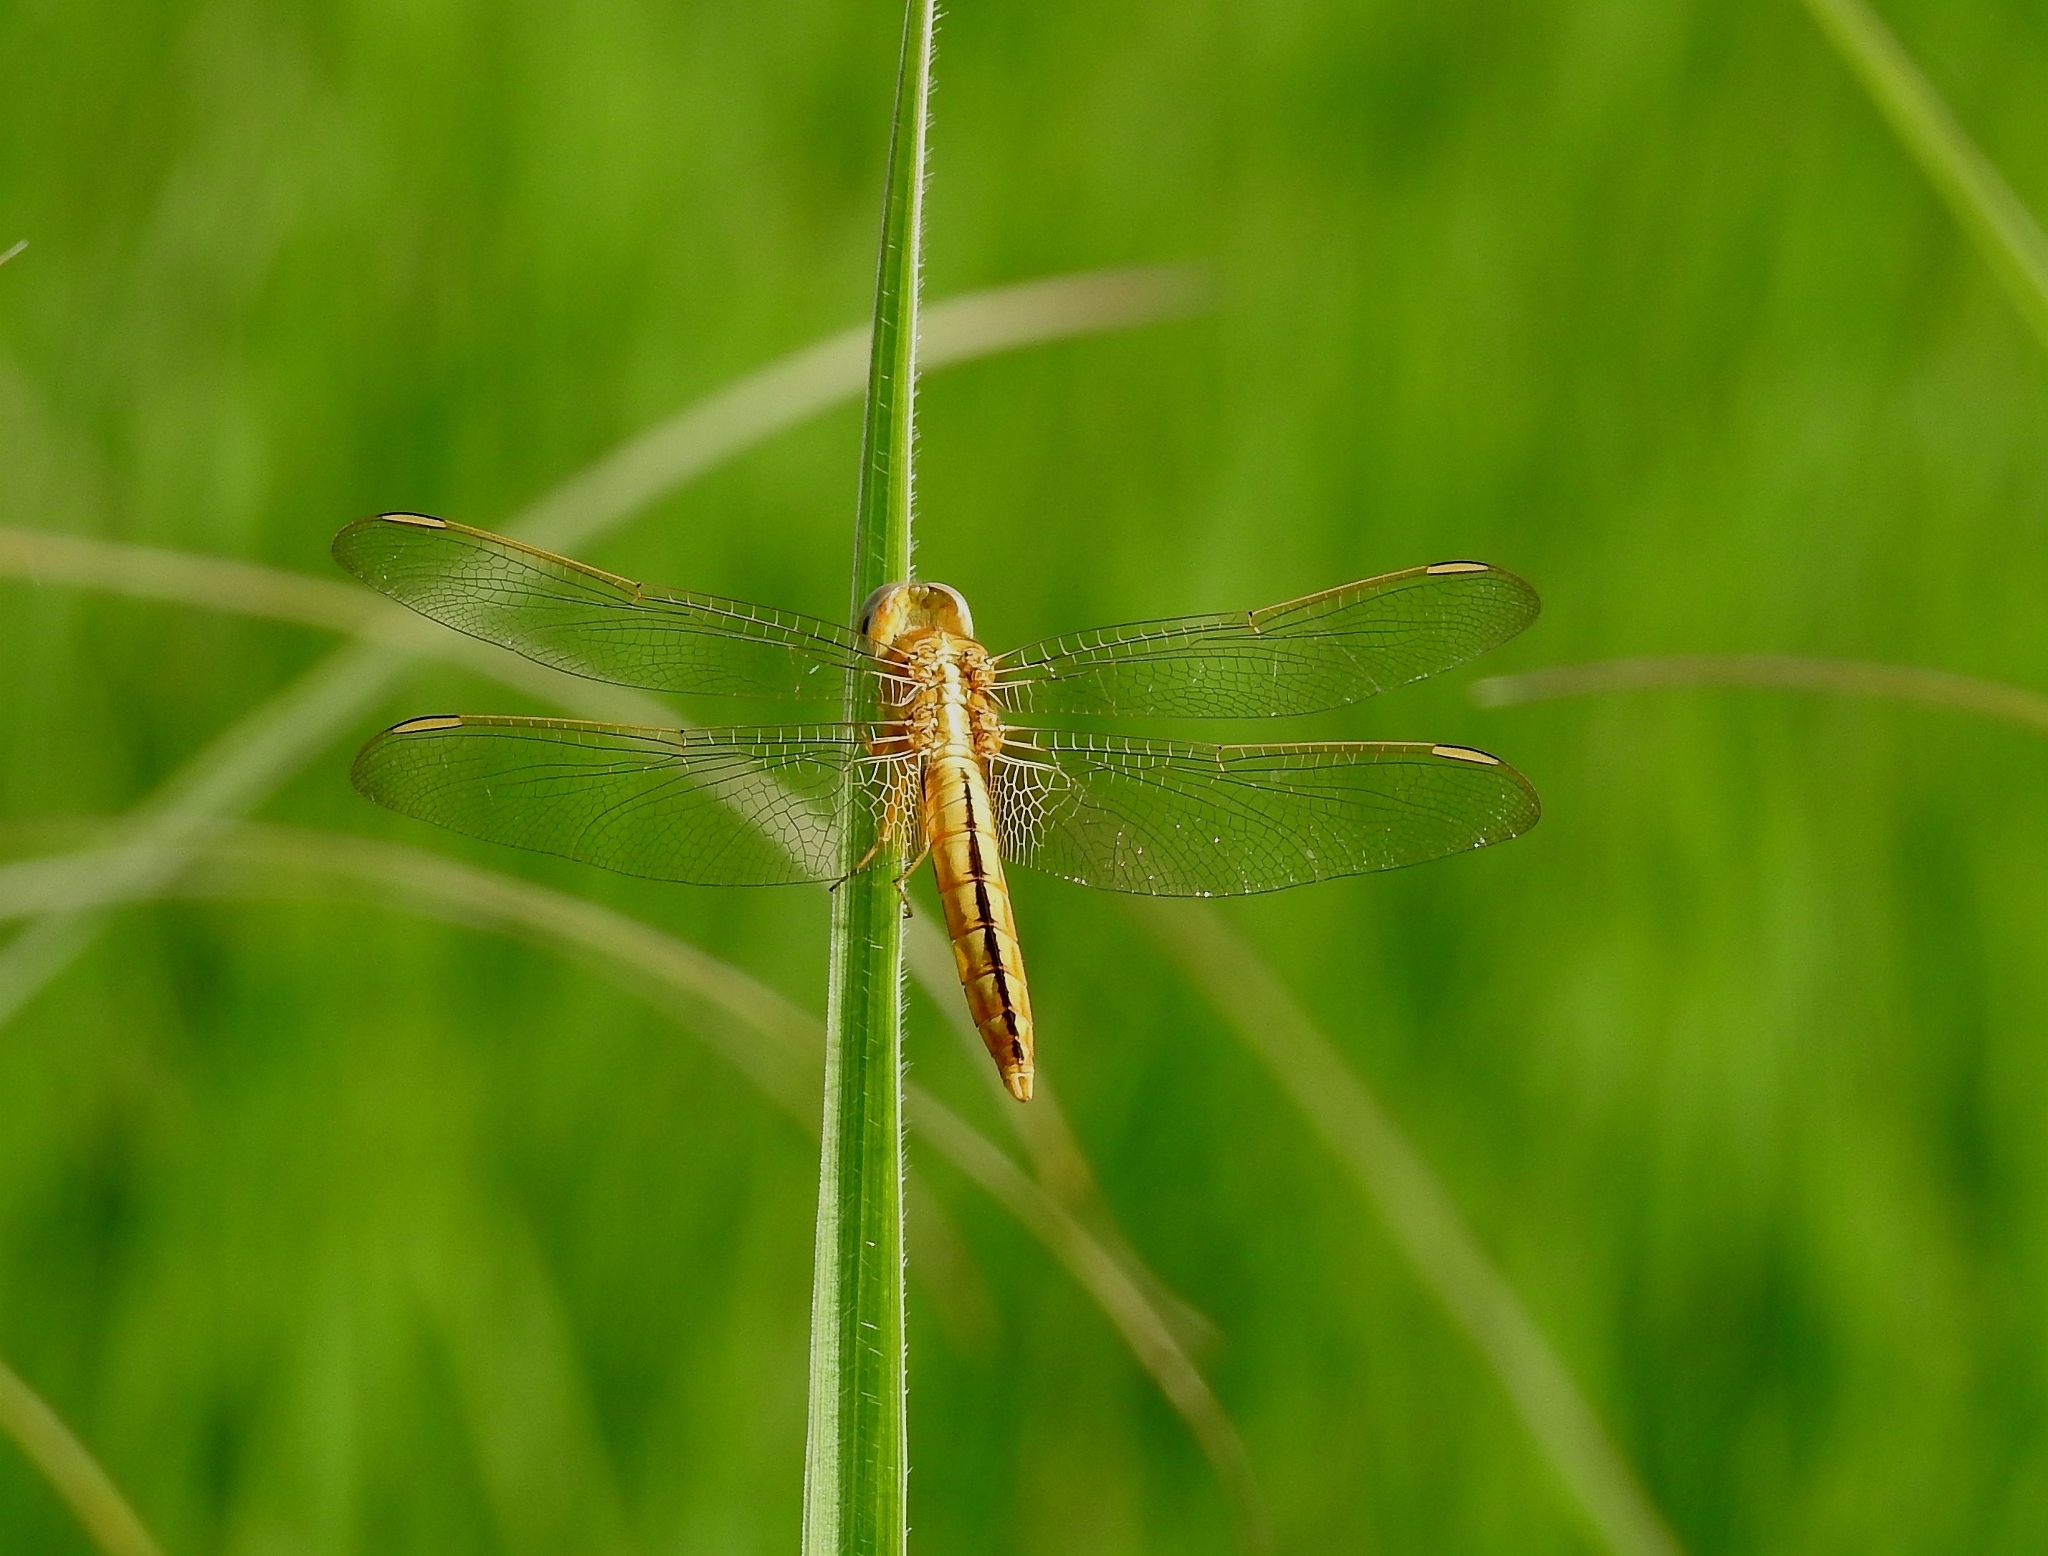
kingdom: Animalia
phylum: Arthropoda
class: Insecta
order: Odonata
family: Libellulidae
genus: Crocothemis
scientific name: Crocothemis servilia
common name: Scarlet skimmer
